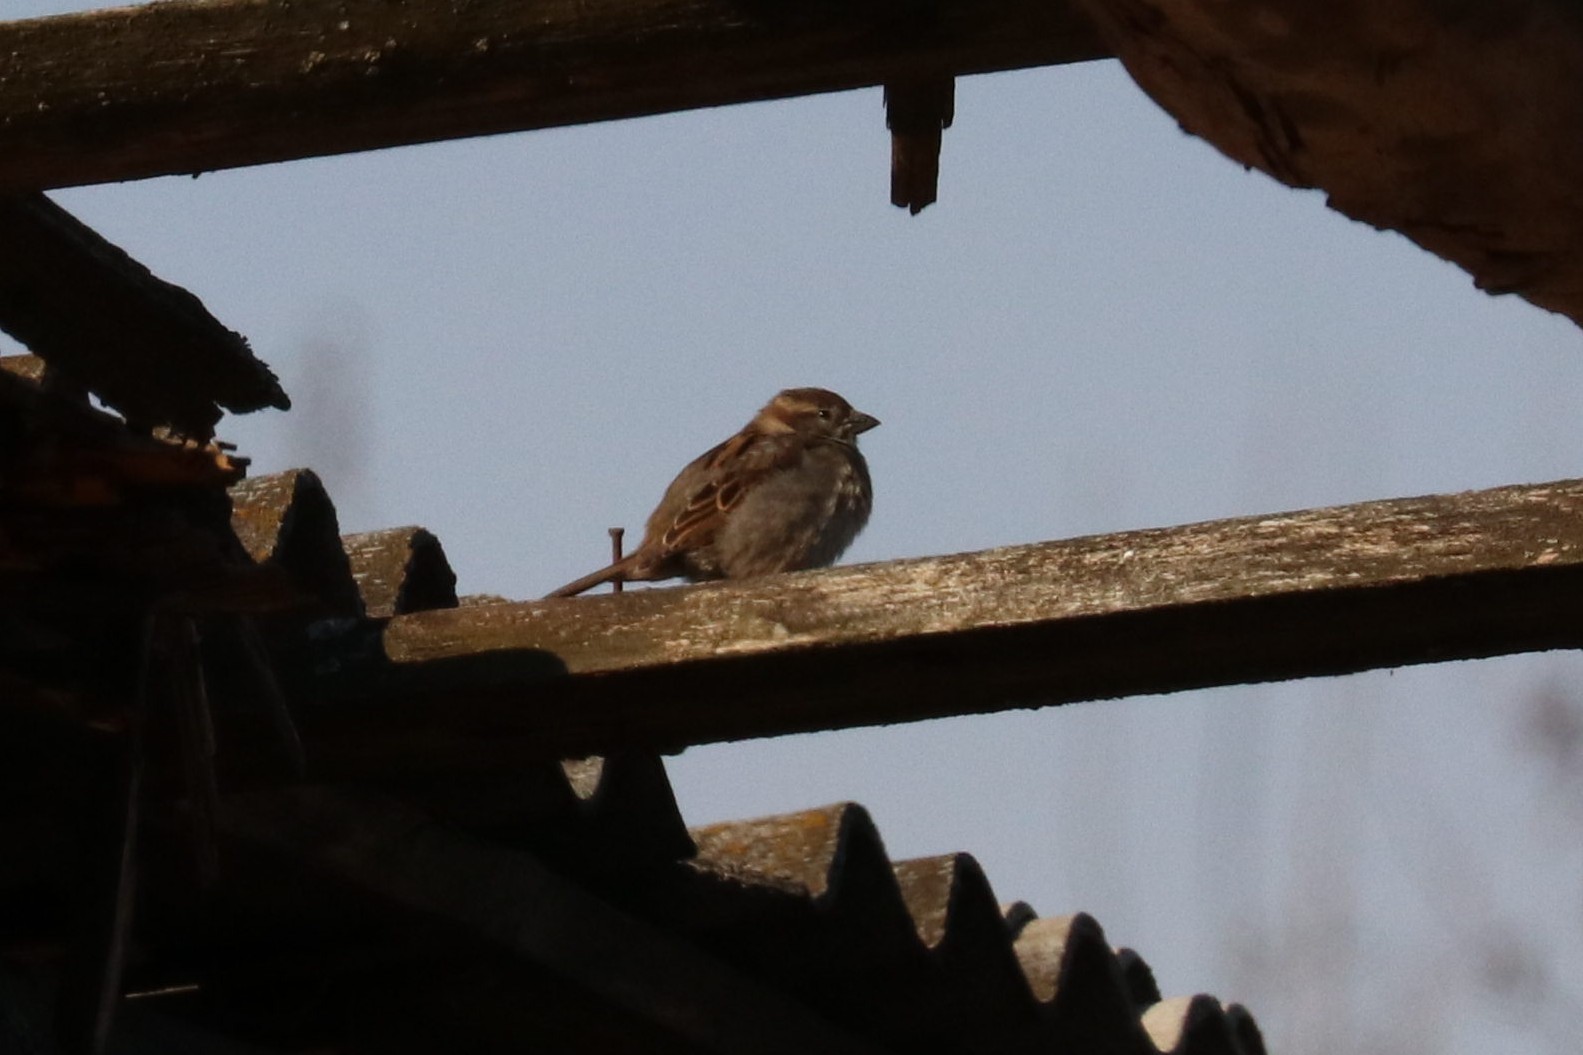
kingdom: Animalia
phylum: Chordata
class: Aves
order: Passeriformes
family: Passeridae
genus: Passer
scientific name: Passer domesticus
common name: House sparrow
